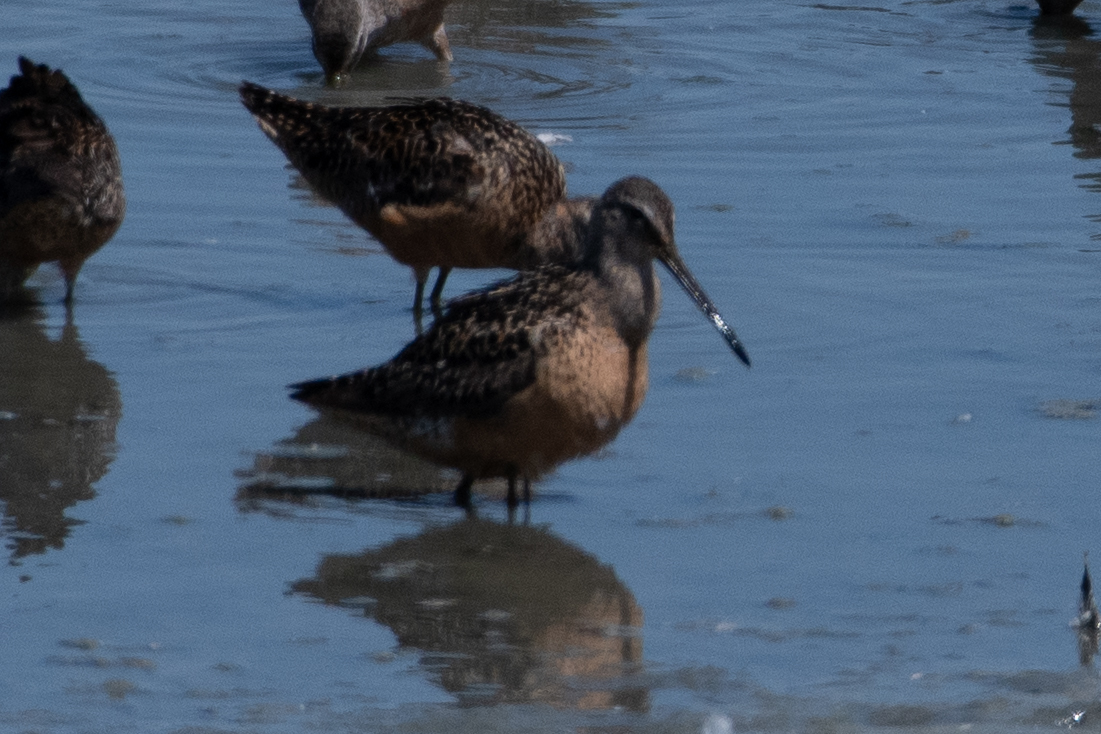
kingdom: Animalia
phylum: Chordata
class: Aves
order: Charadriiformes
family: Scolopacidae
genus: Limnodromus
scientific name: Limnodromus scolopaceus
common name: Long-billed dowitcher
